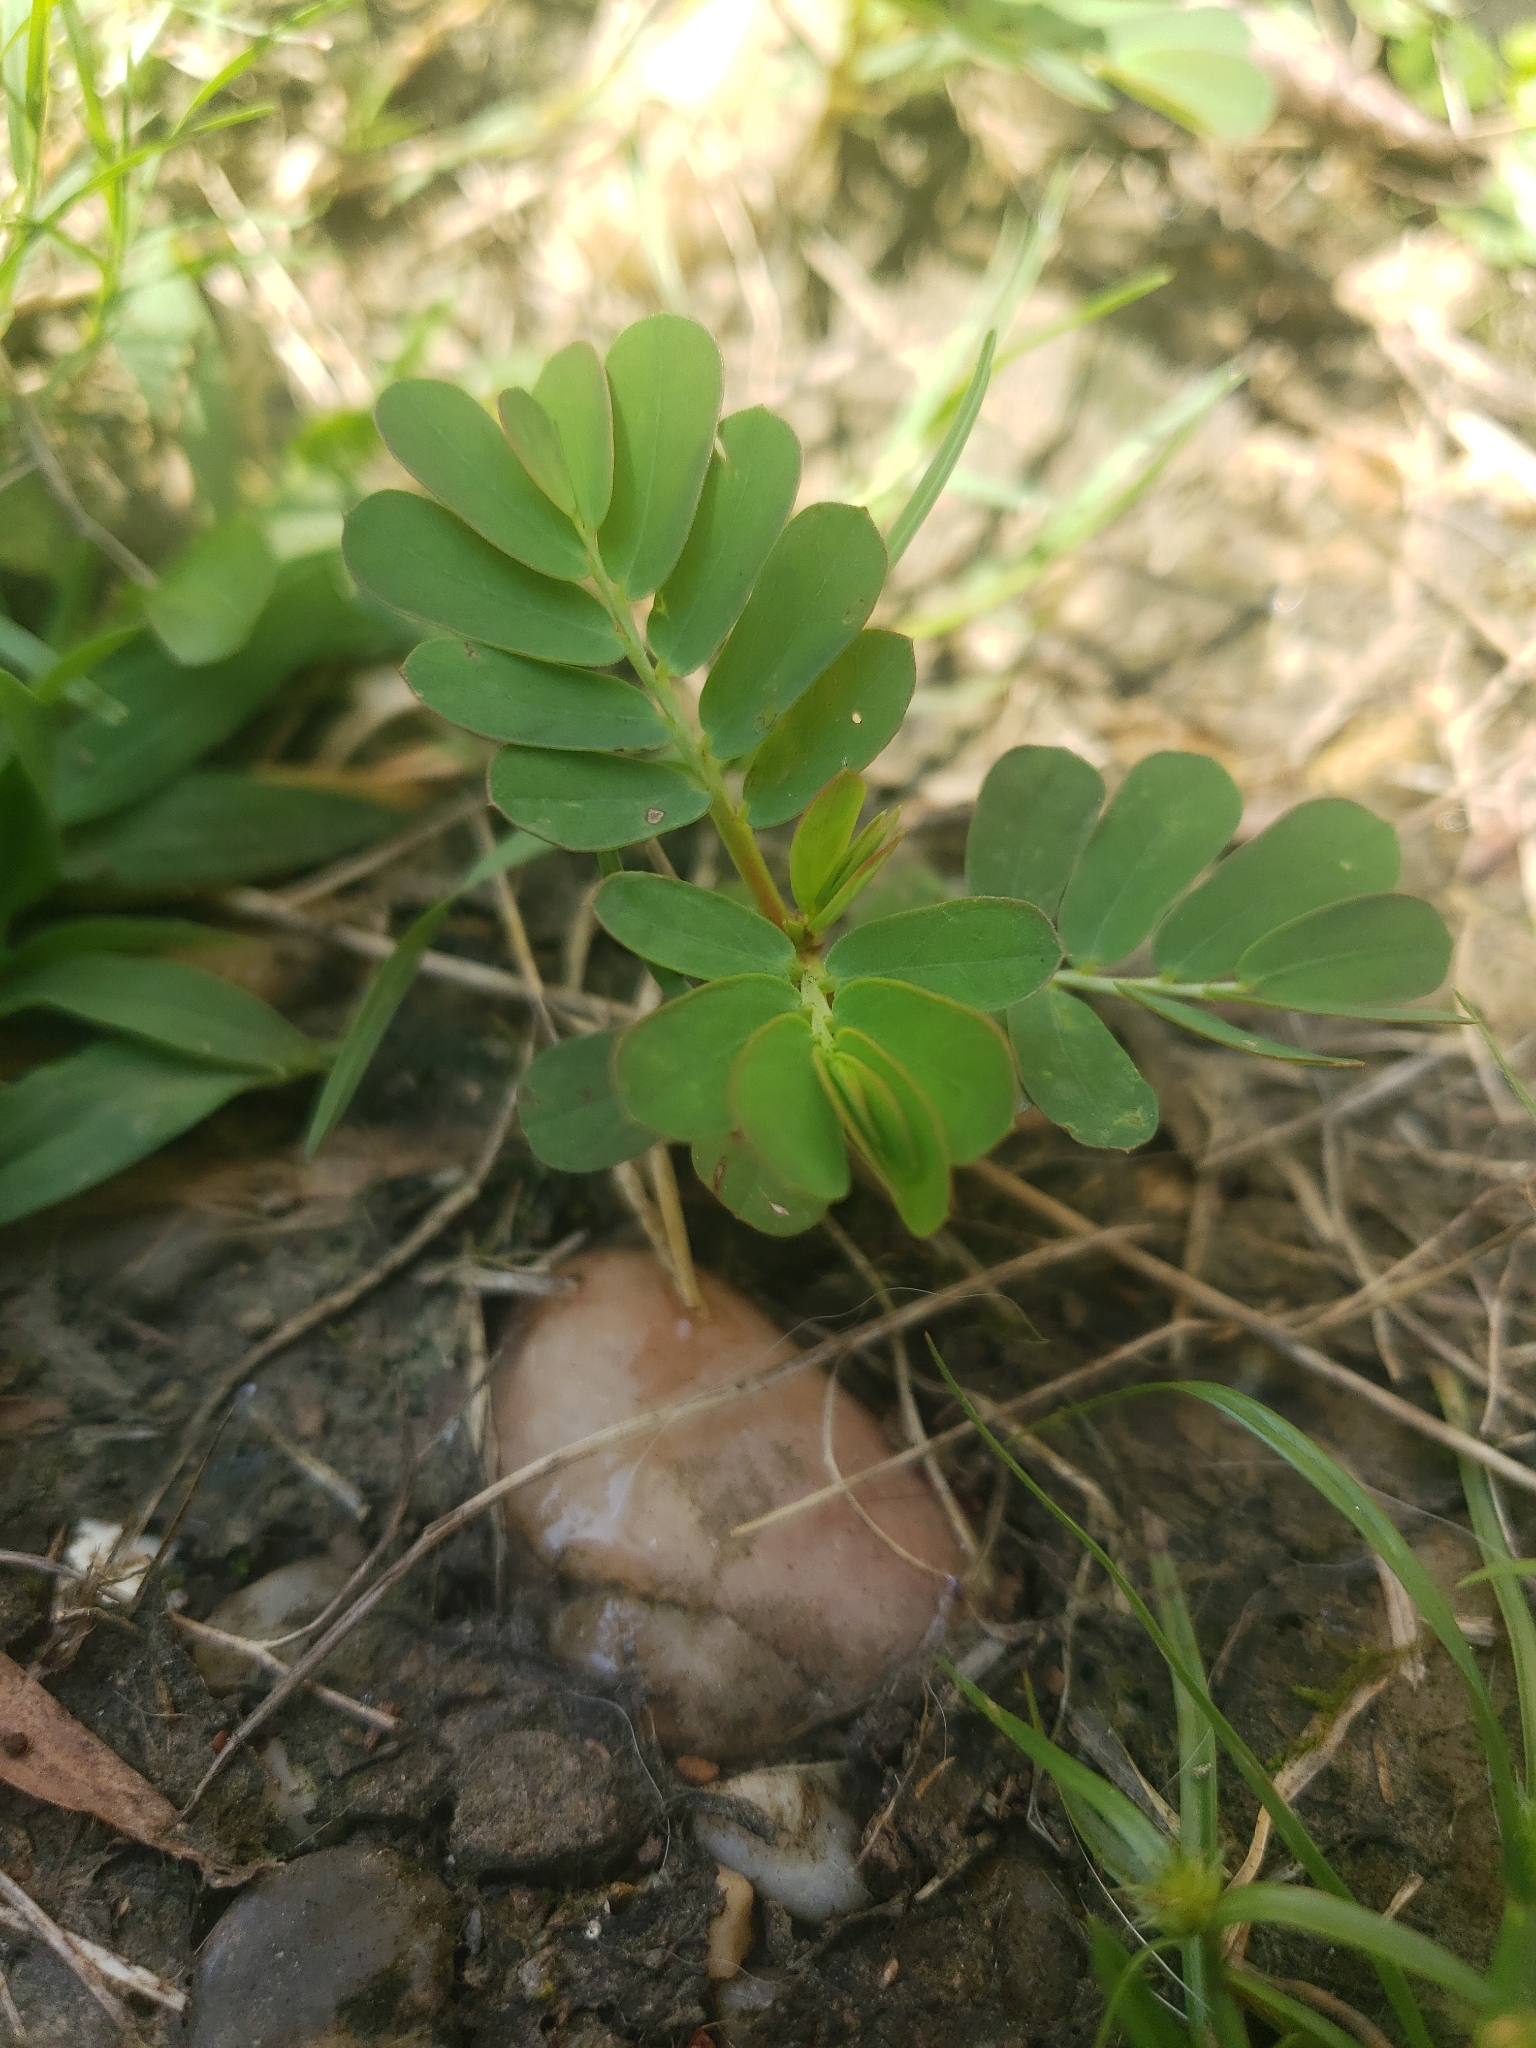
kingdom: Plantae
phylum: Tracheophyta
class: Magnoliopsida
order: Malpighiales
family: Phyllanthaceae
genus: Phyllanthus
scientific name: Phyllanthus urinaria
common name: Chamber bitter
